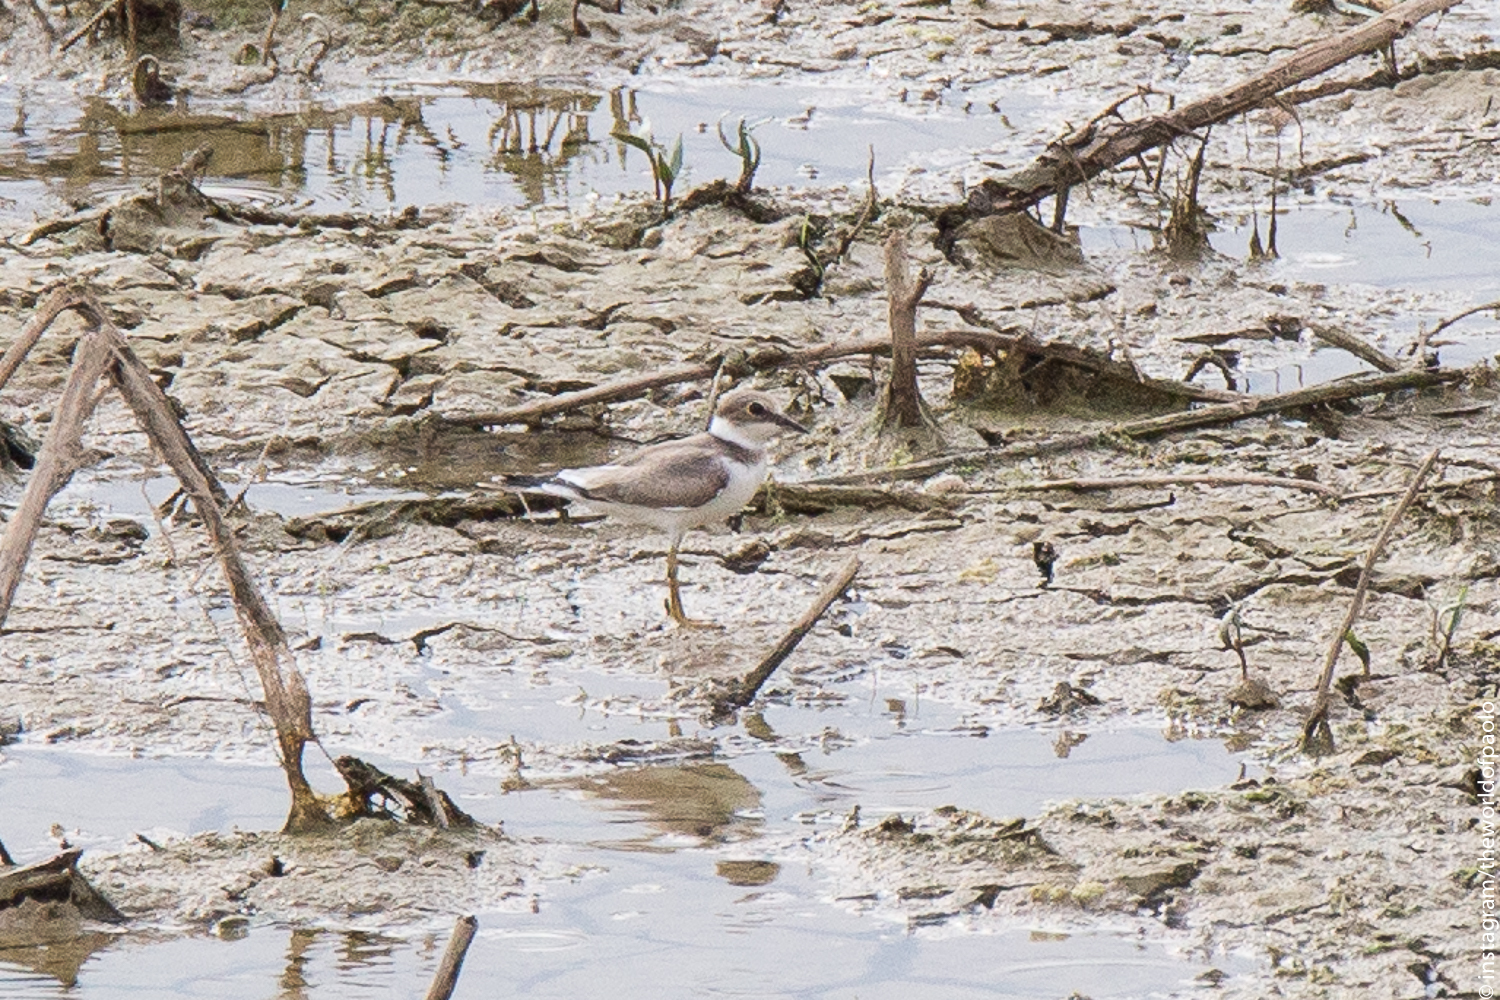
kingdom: Animalia
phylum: Chordata
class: Aves
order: Charadriiformes
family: Charadriidae
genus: Charadrius
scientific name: Charadrius dubius
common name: Little ringed plover
